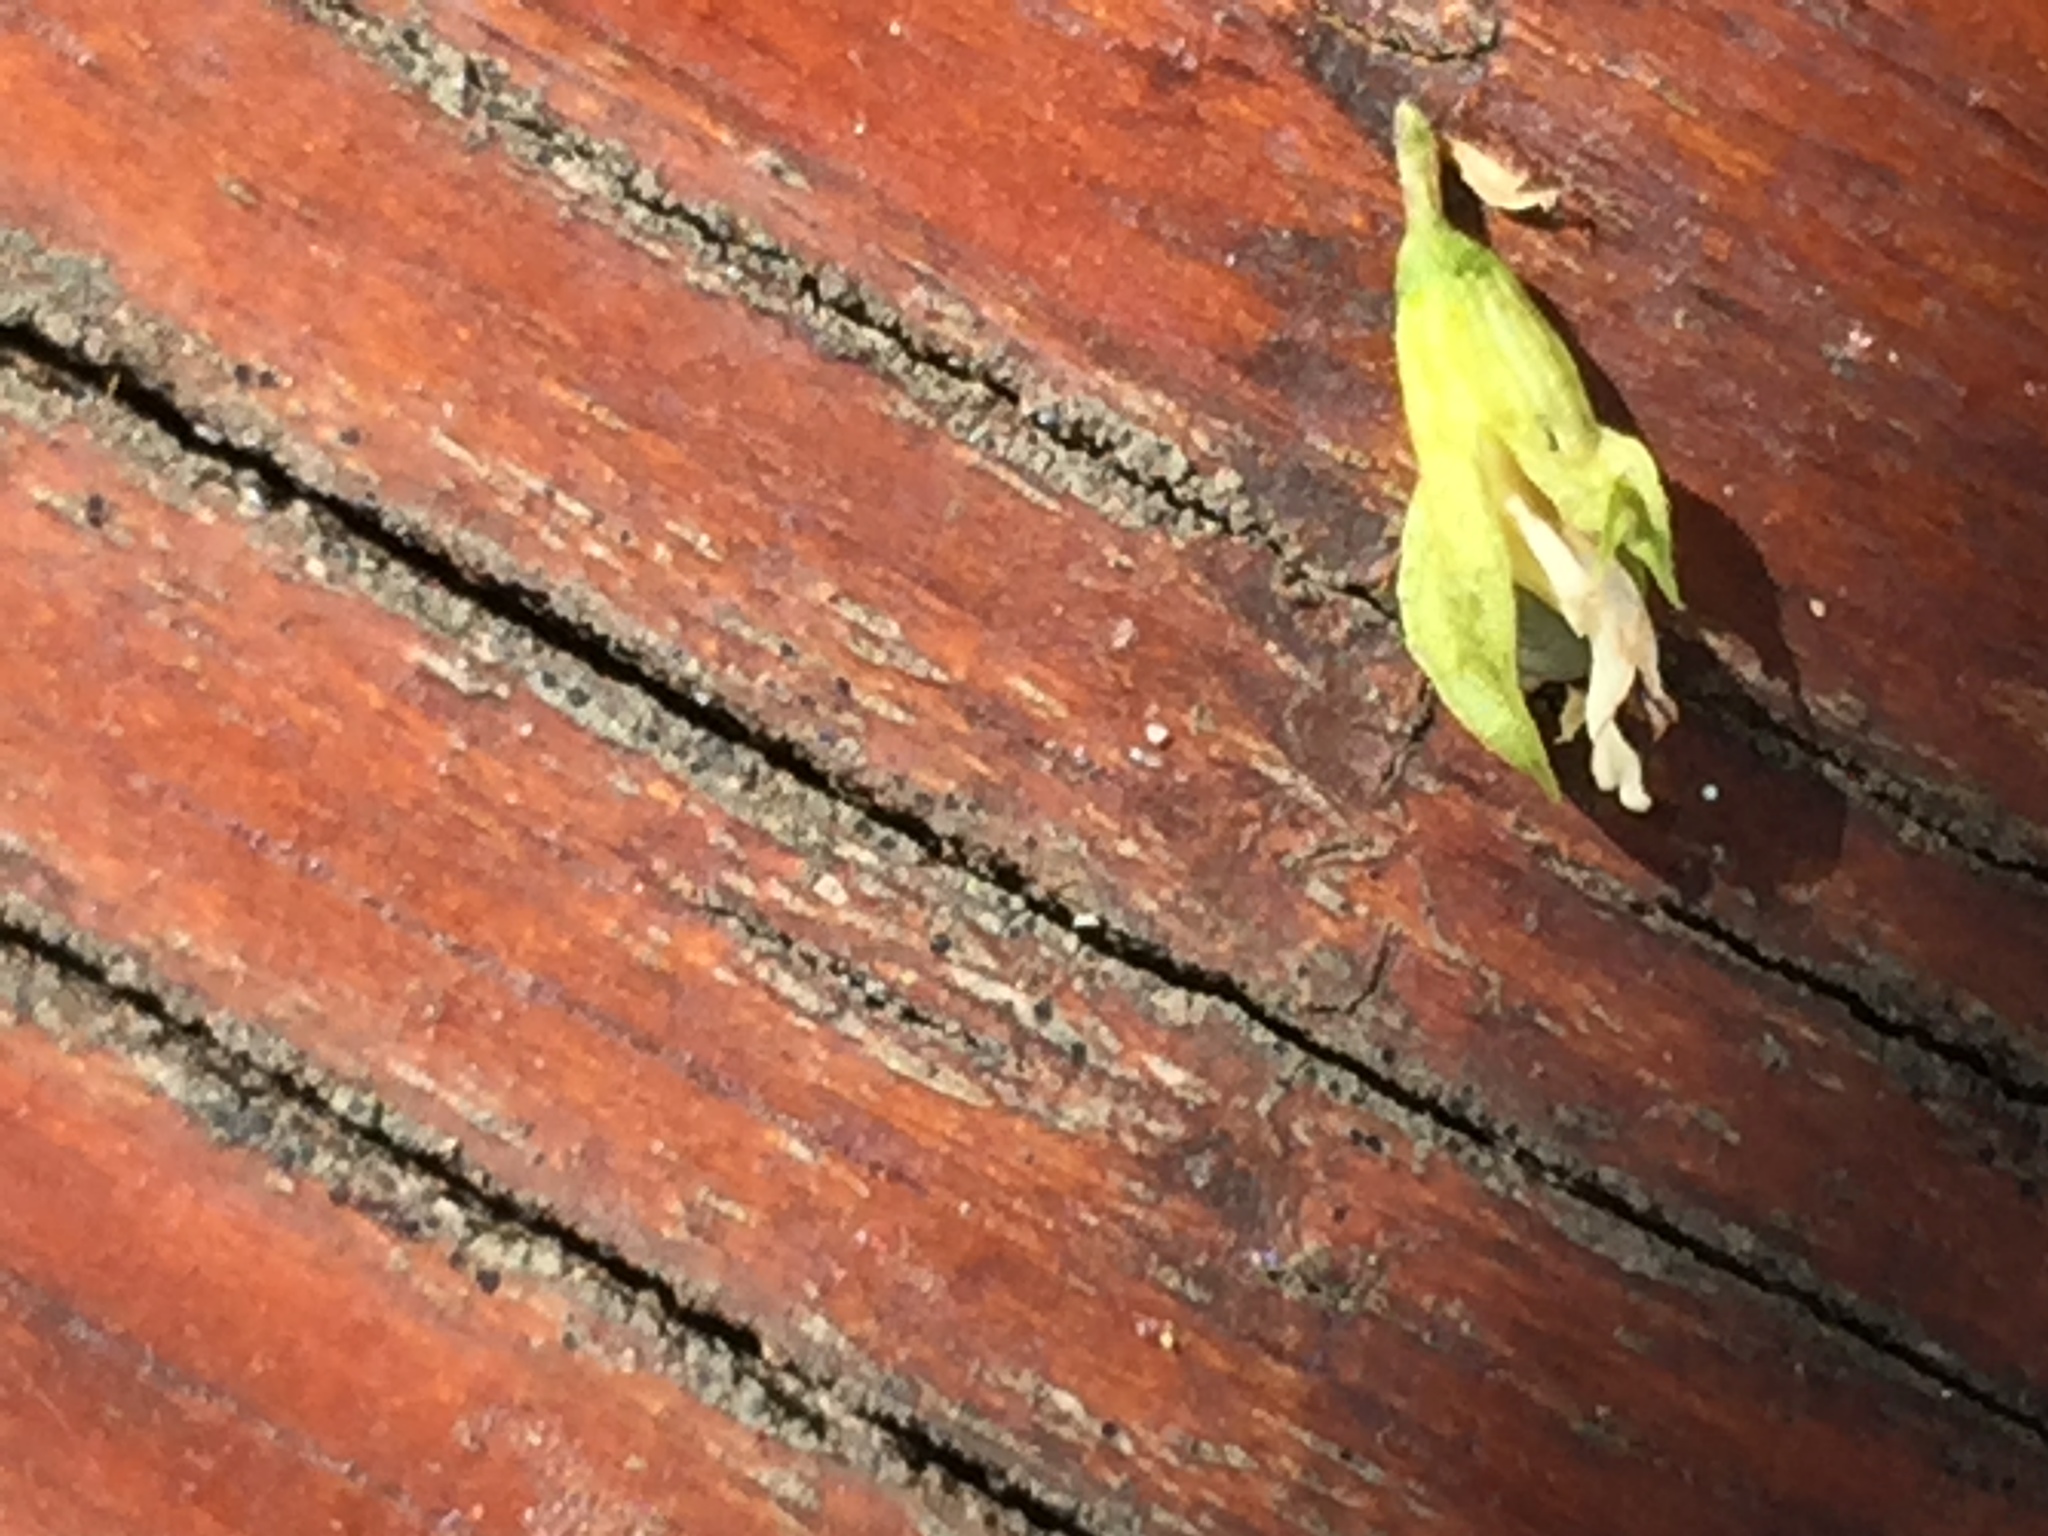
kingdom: Plantae
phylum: Tracheophyta
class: Magnoliopsida
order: Fabales
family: Fabaceae
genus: Psoralea
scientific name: Psoralea heterosepala
